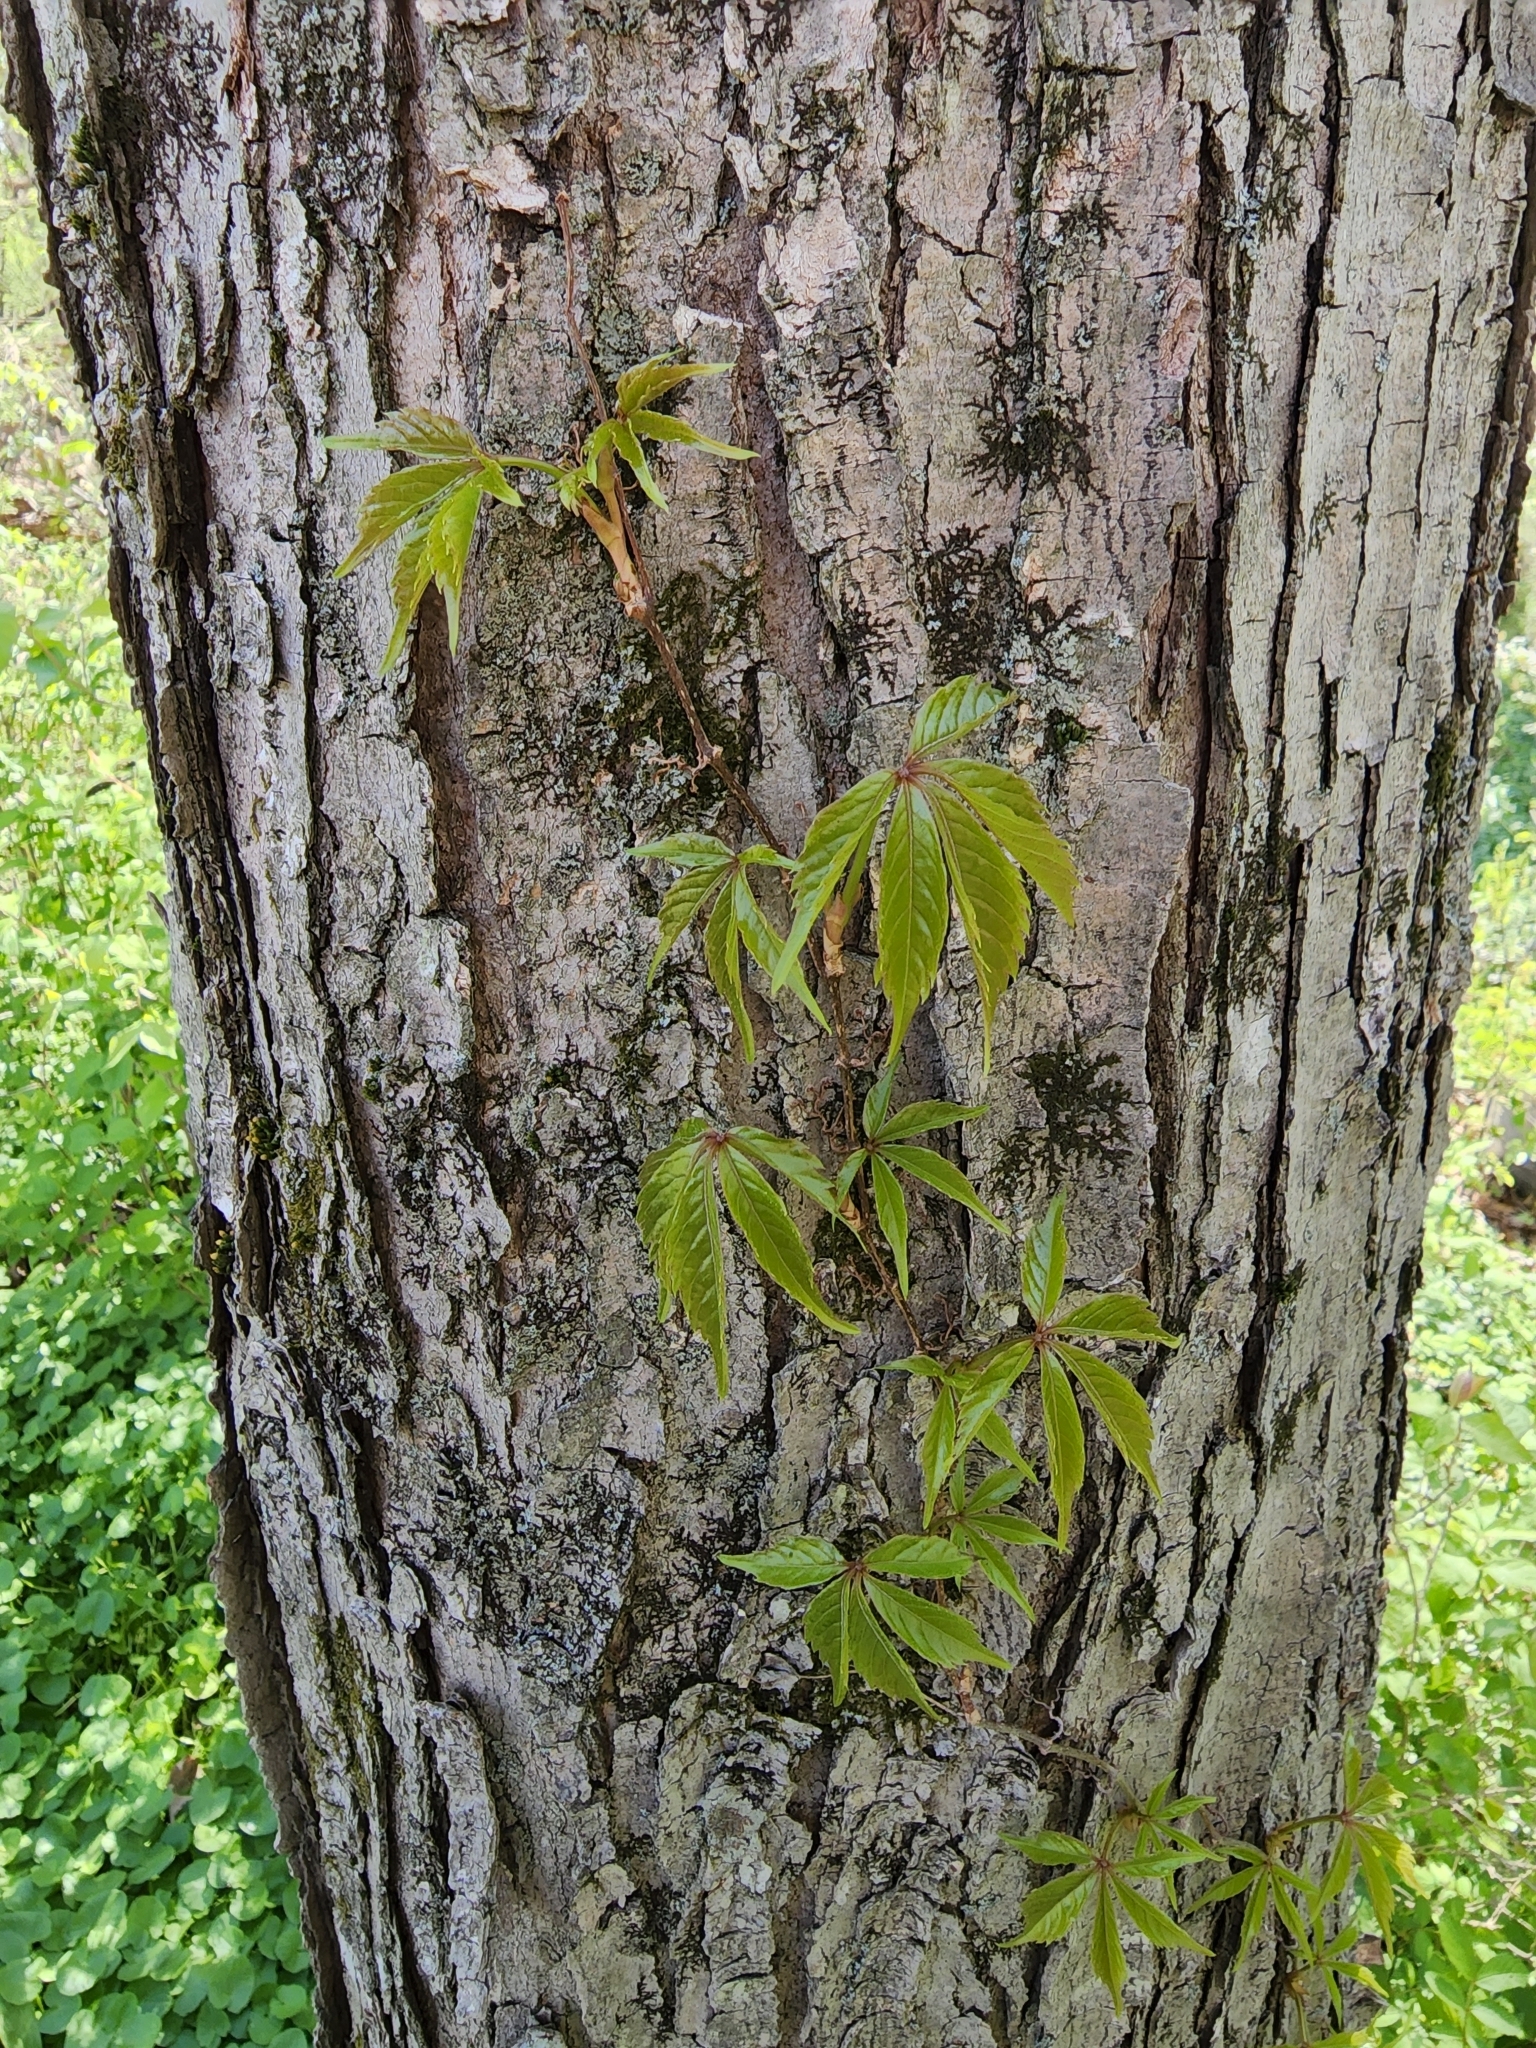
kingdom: Plantae
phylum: Tracheophyta
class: Magnoliopsida
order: Vitales
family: Vitaceae
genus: Parthenocissus
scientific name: Parthenocissus quinquefolia
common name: Virginia-creeper
